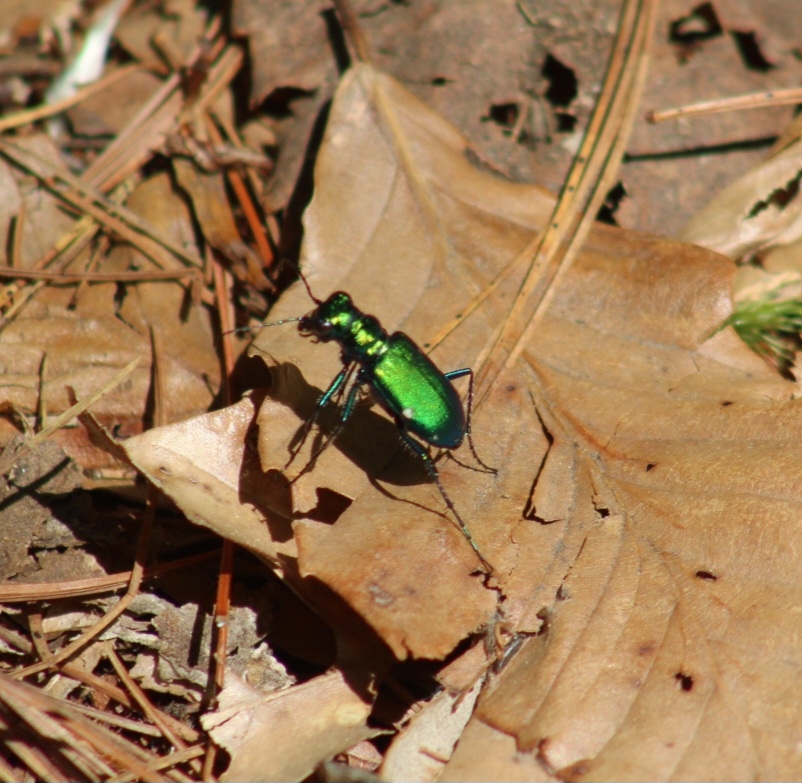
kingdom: Animalia
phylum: Arthropoda
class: Insecta
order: Coleoptera
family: Carabidae
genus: Cicindela
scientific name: Cicindela sexguttata
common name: Six-spotted tiger beetle
